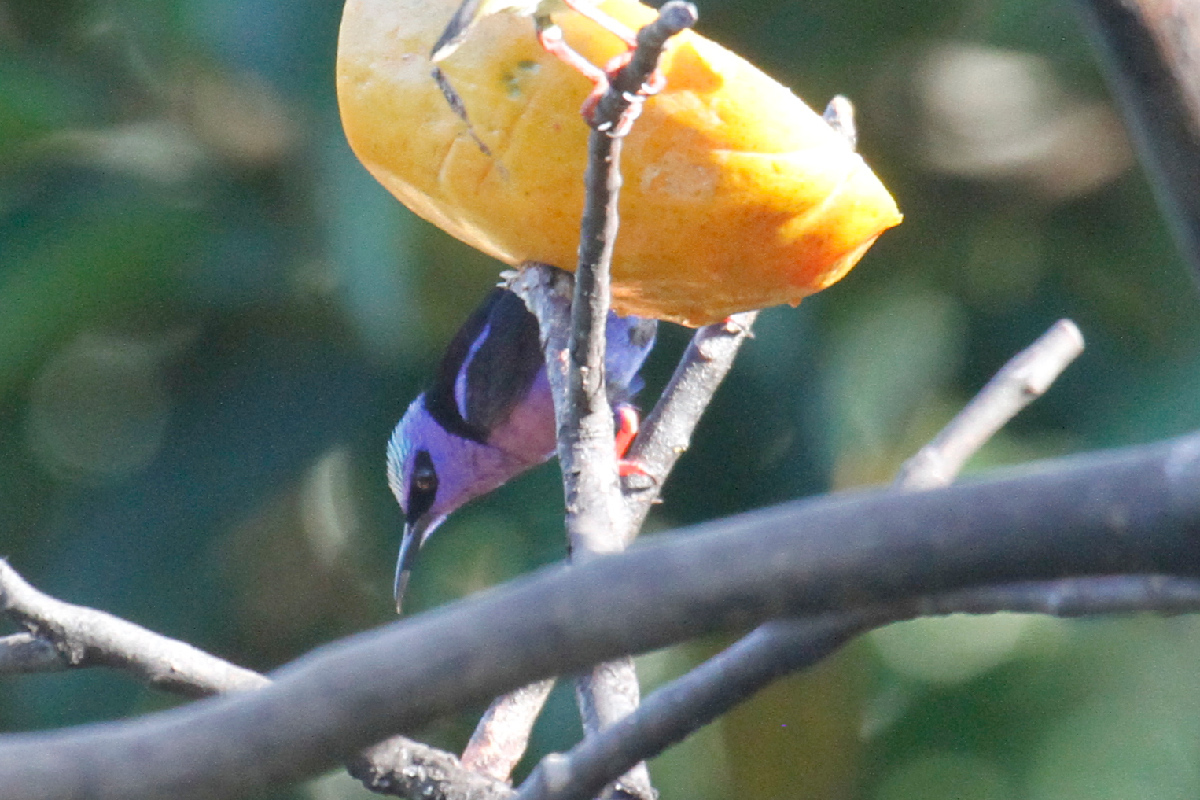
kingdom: Animalia
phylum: Chordata
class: Aves
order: Passeriformes
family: Thraupidae
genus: Cyanerpes
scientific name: Cyanerpes cyaneus
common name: Red-legged honeycreeper
